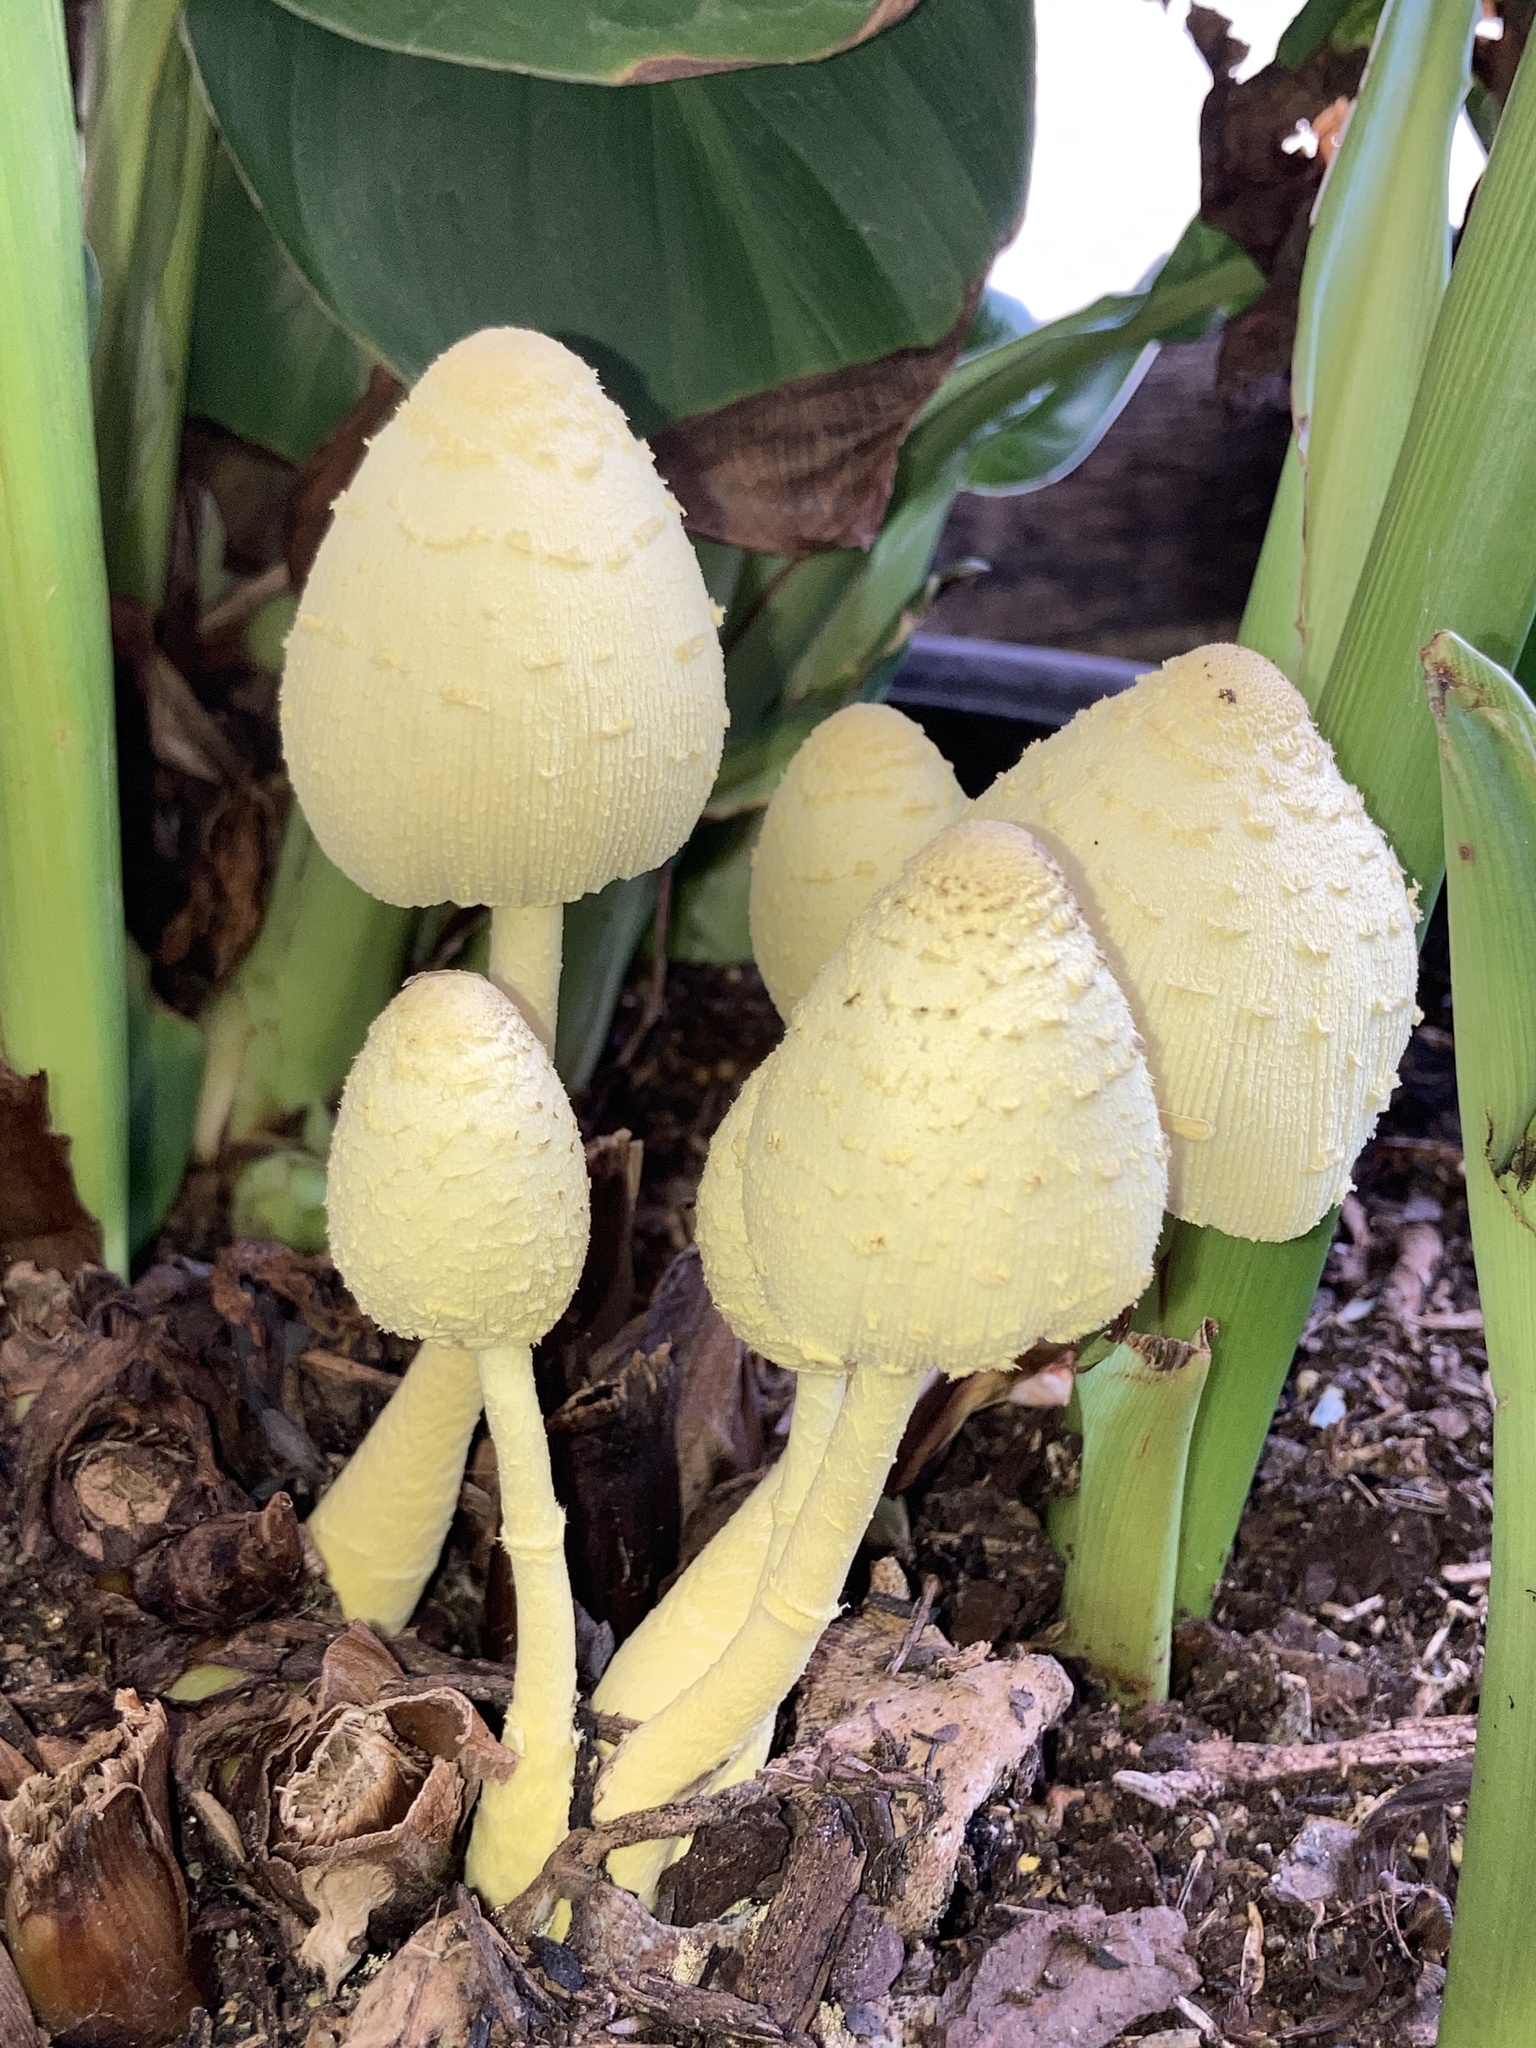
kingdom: Fungi
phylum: Basidiomycota
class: Agaricomycetes
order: Agaricales
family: Agaricaceae
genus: Leucocoprinus
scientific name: Leucocoprinus birnbaumii
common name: Plantpot dapperling
